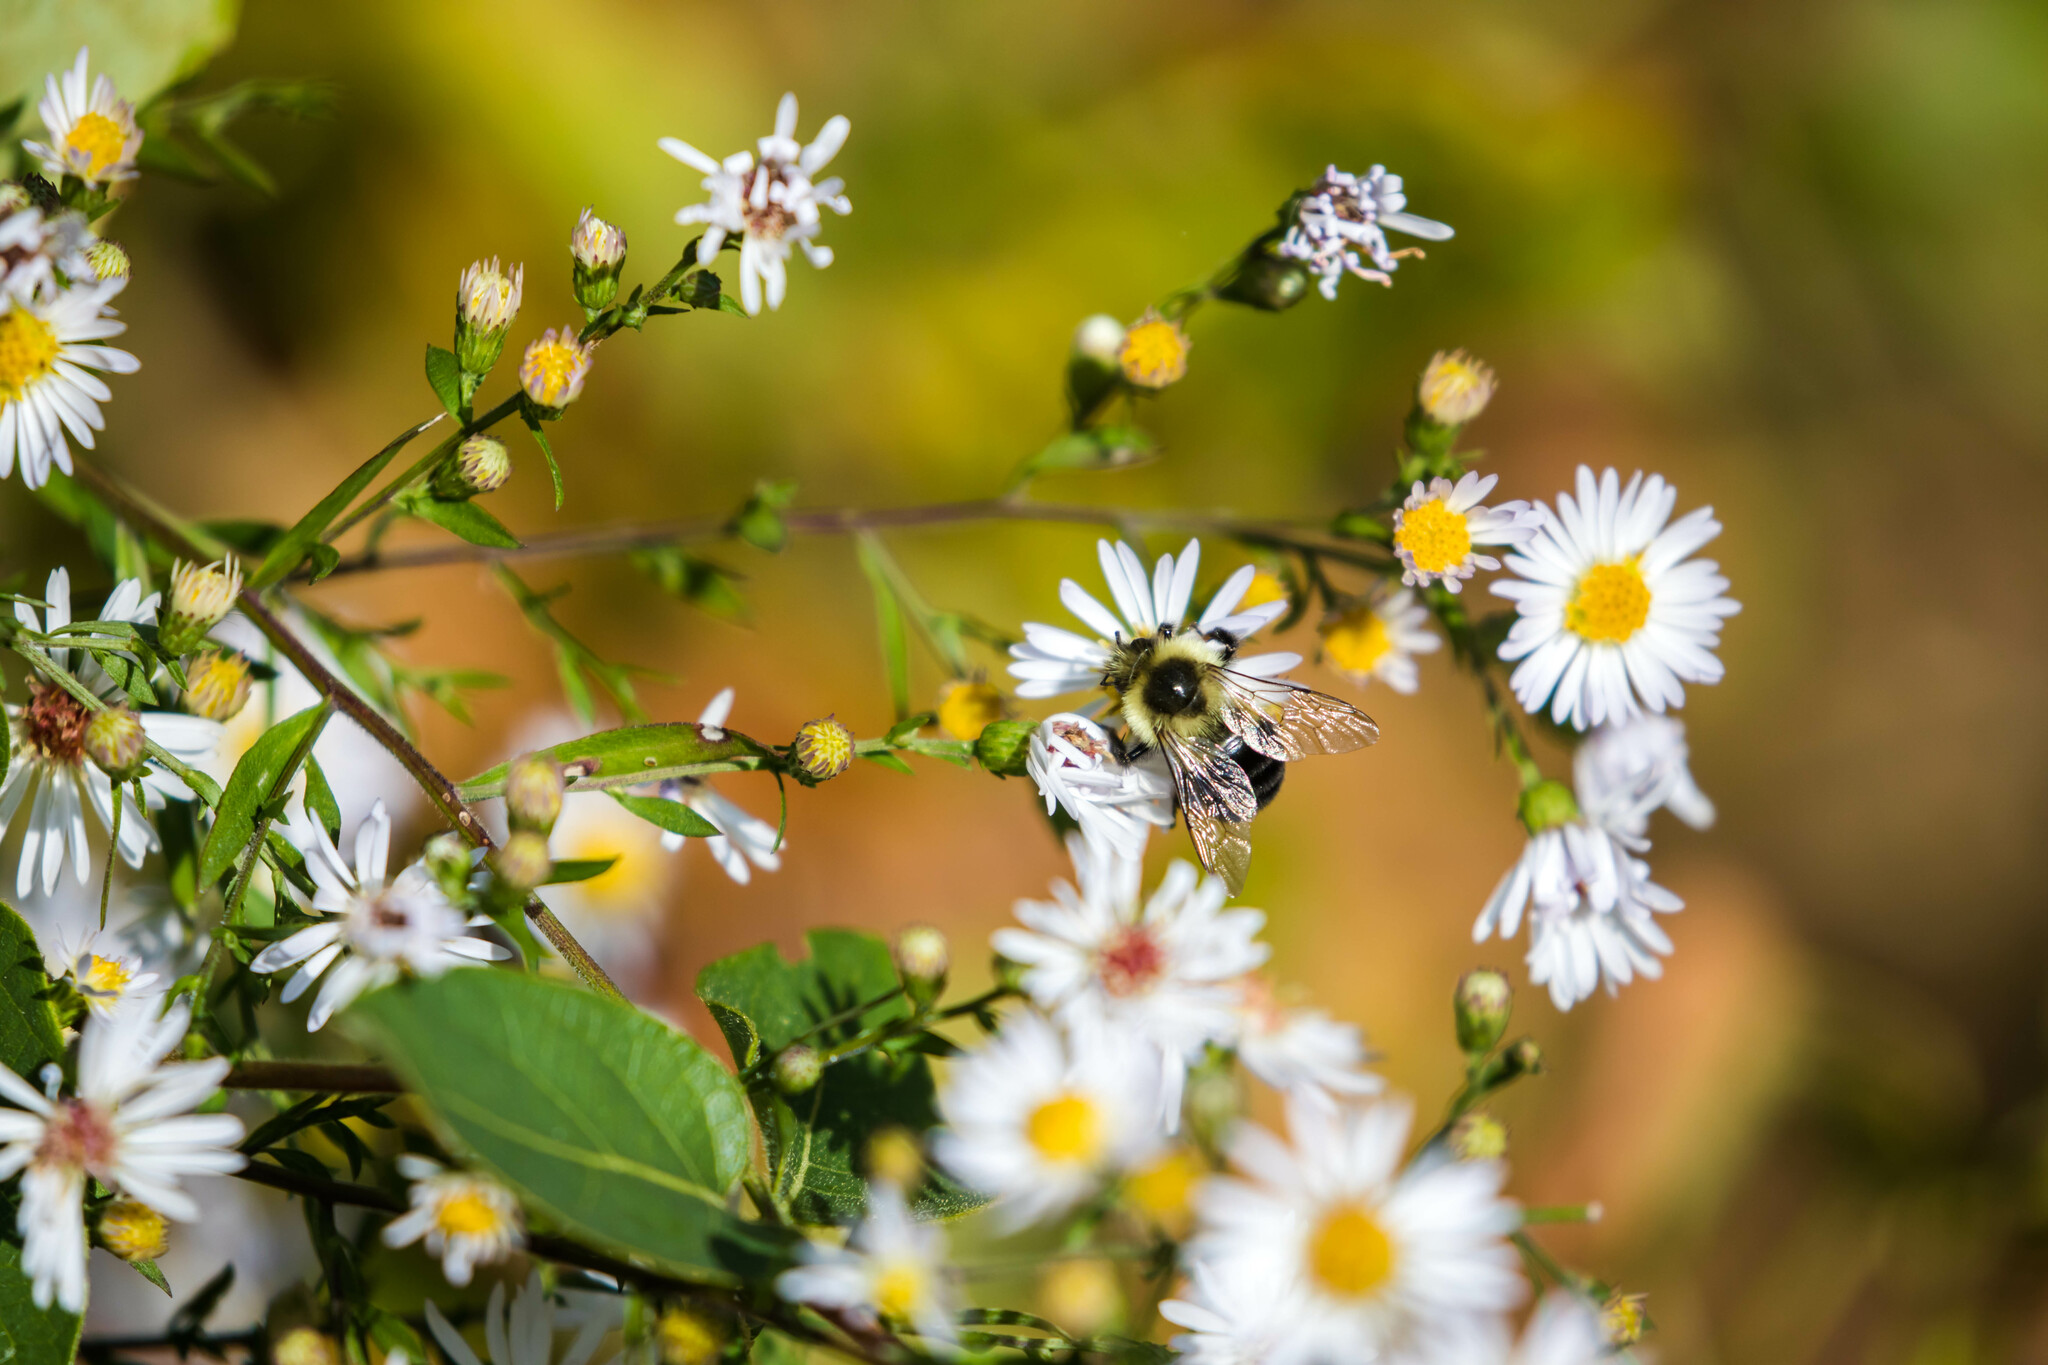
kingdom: Animalia
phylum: Arthropoda
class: Insecta
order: Hymenoptera
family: Apidae
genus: Bombus
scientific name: Bombus impatiens
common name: Common eastern bumble bee
